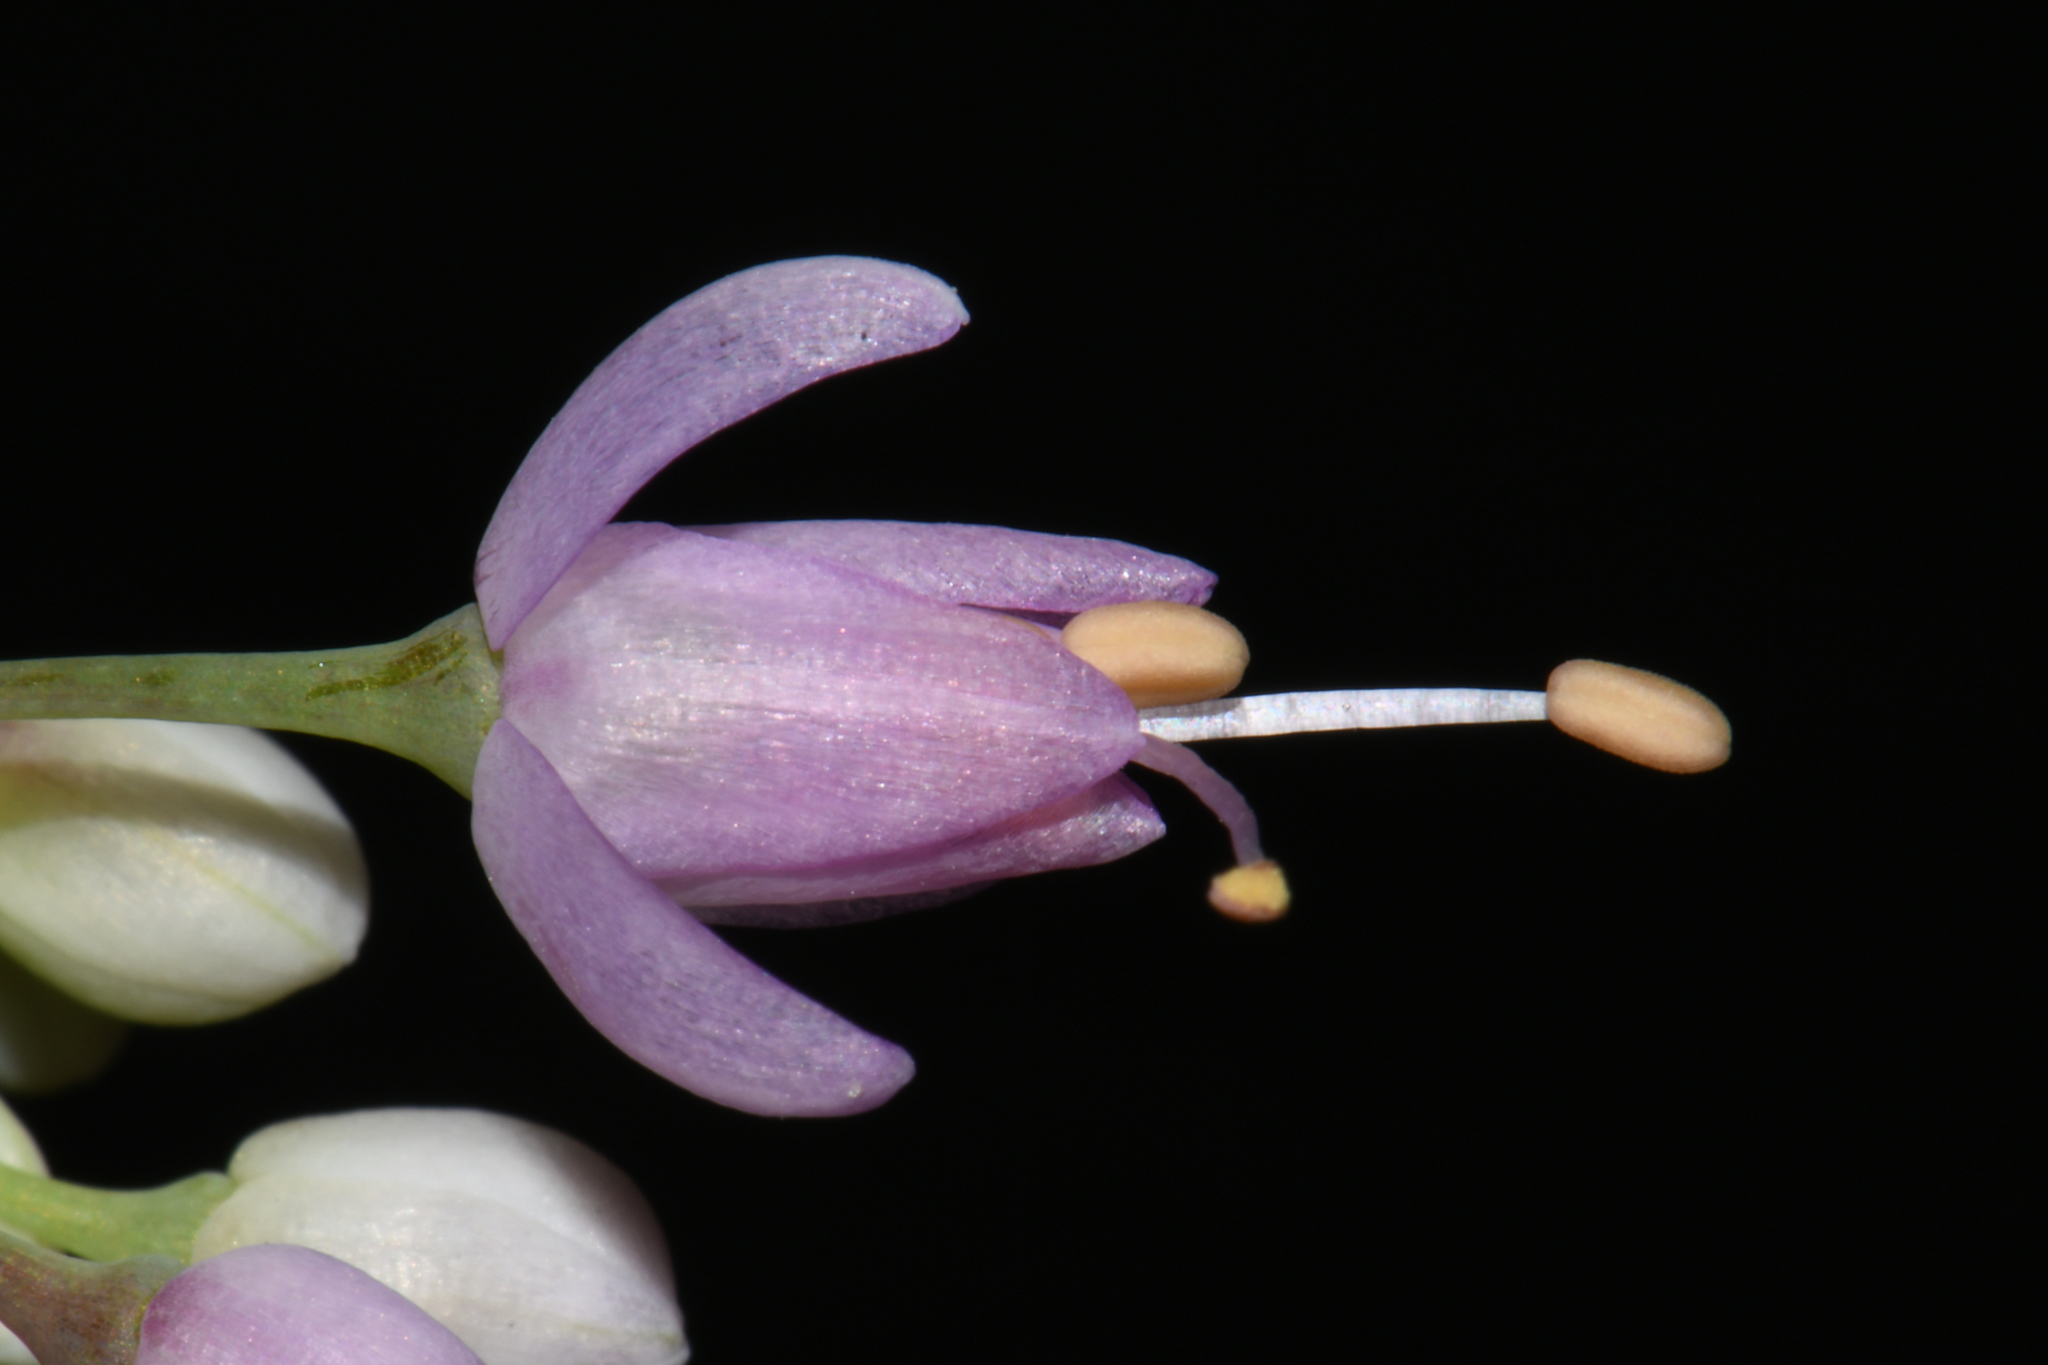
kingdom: Plantae
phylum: Tracheophyta
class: Liliopsida
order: Asparagales
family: Amaryllidaceae
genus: Allium
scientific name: Allium cernuum
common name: Nodding onion
